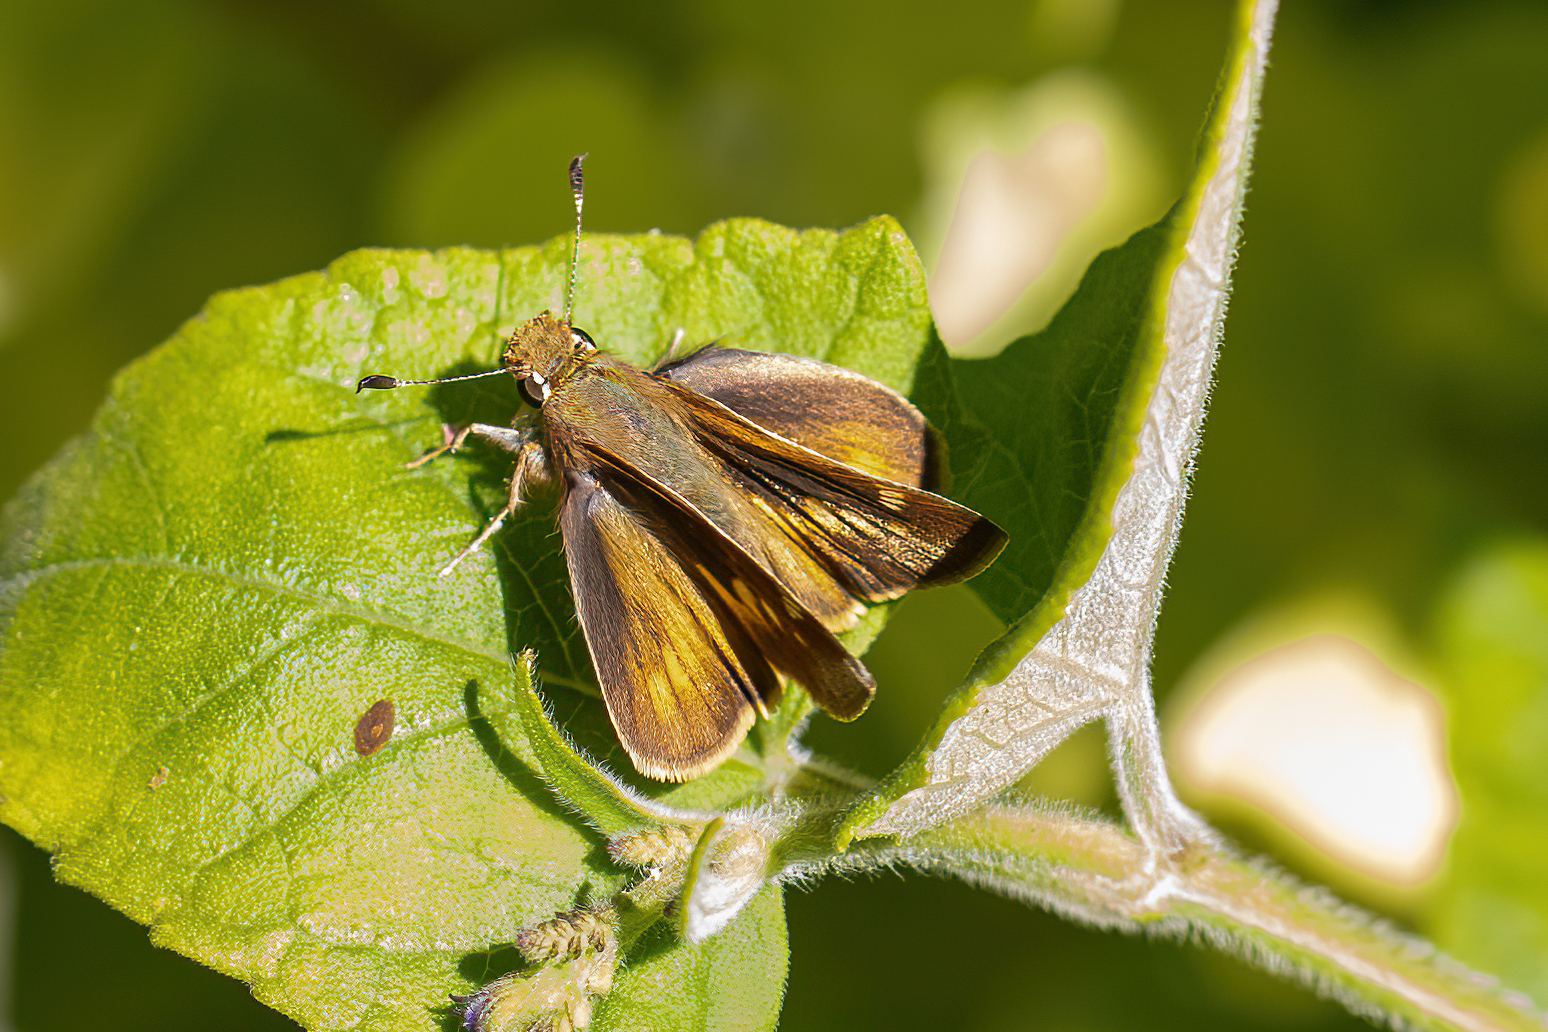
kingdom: Animalia
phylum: Arthropoda
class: Insecta
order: Lepidoptera
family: Hesperiidae
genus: Lon
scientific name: Lon melane
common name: Umber skipper
